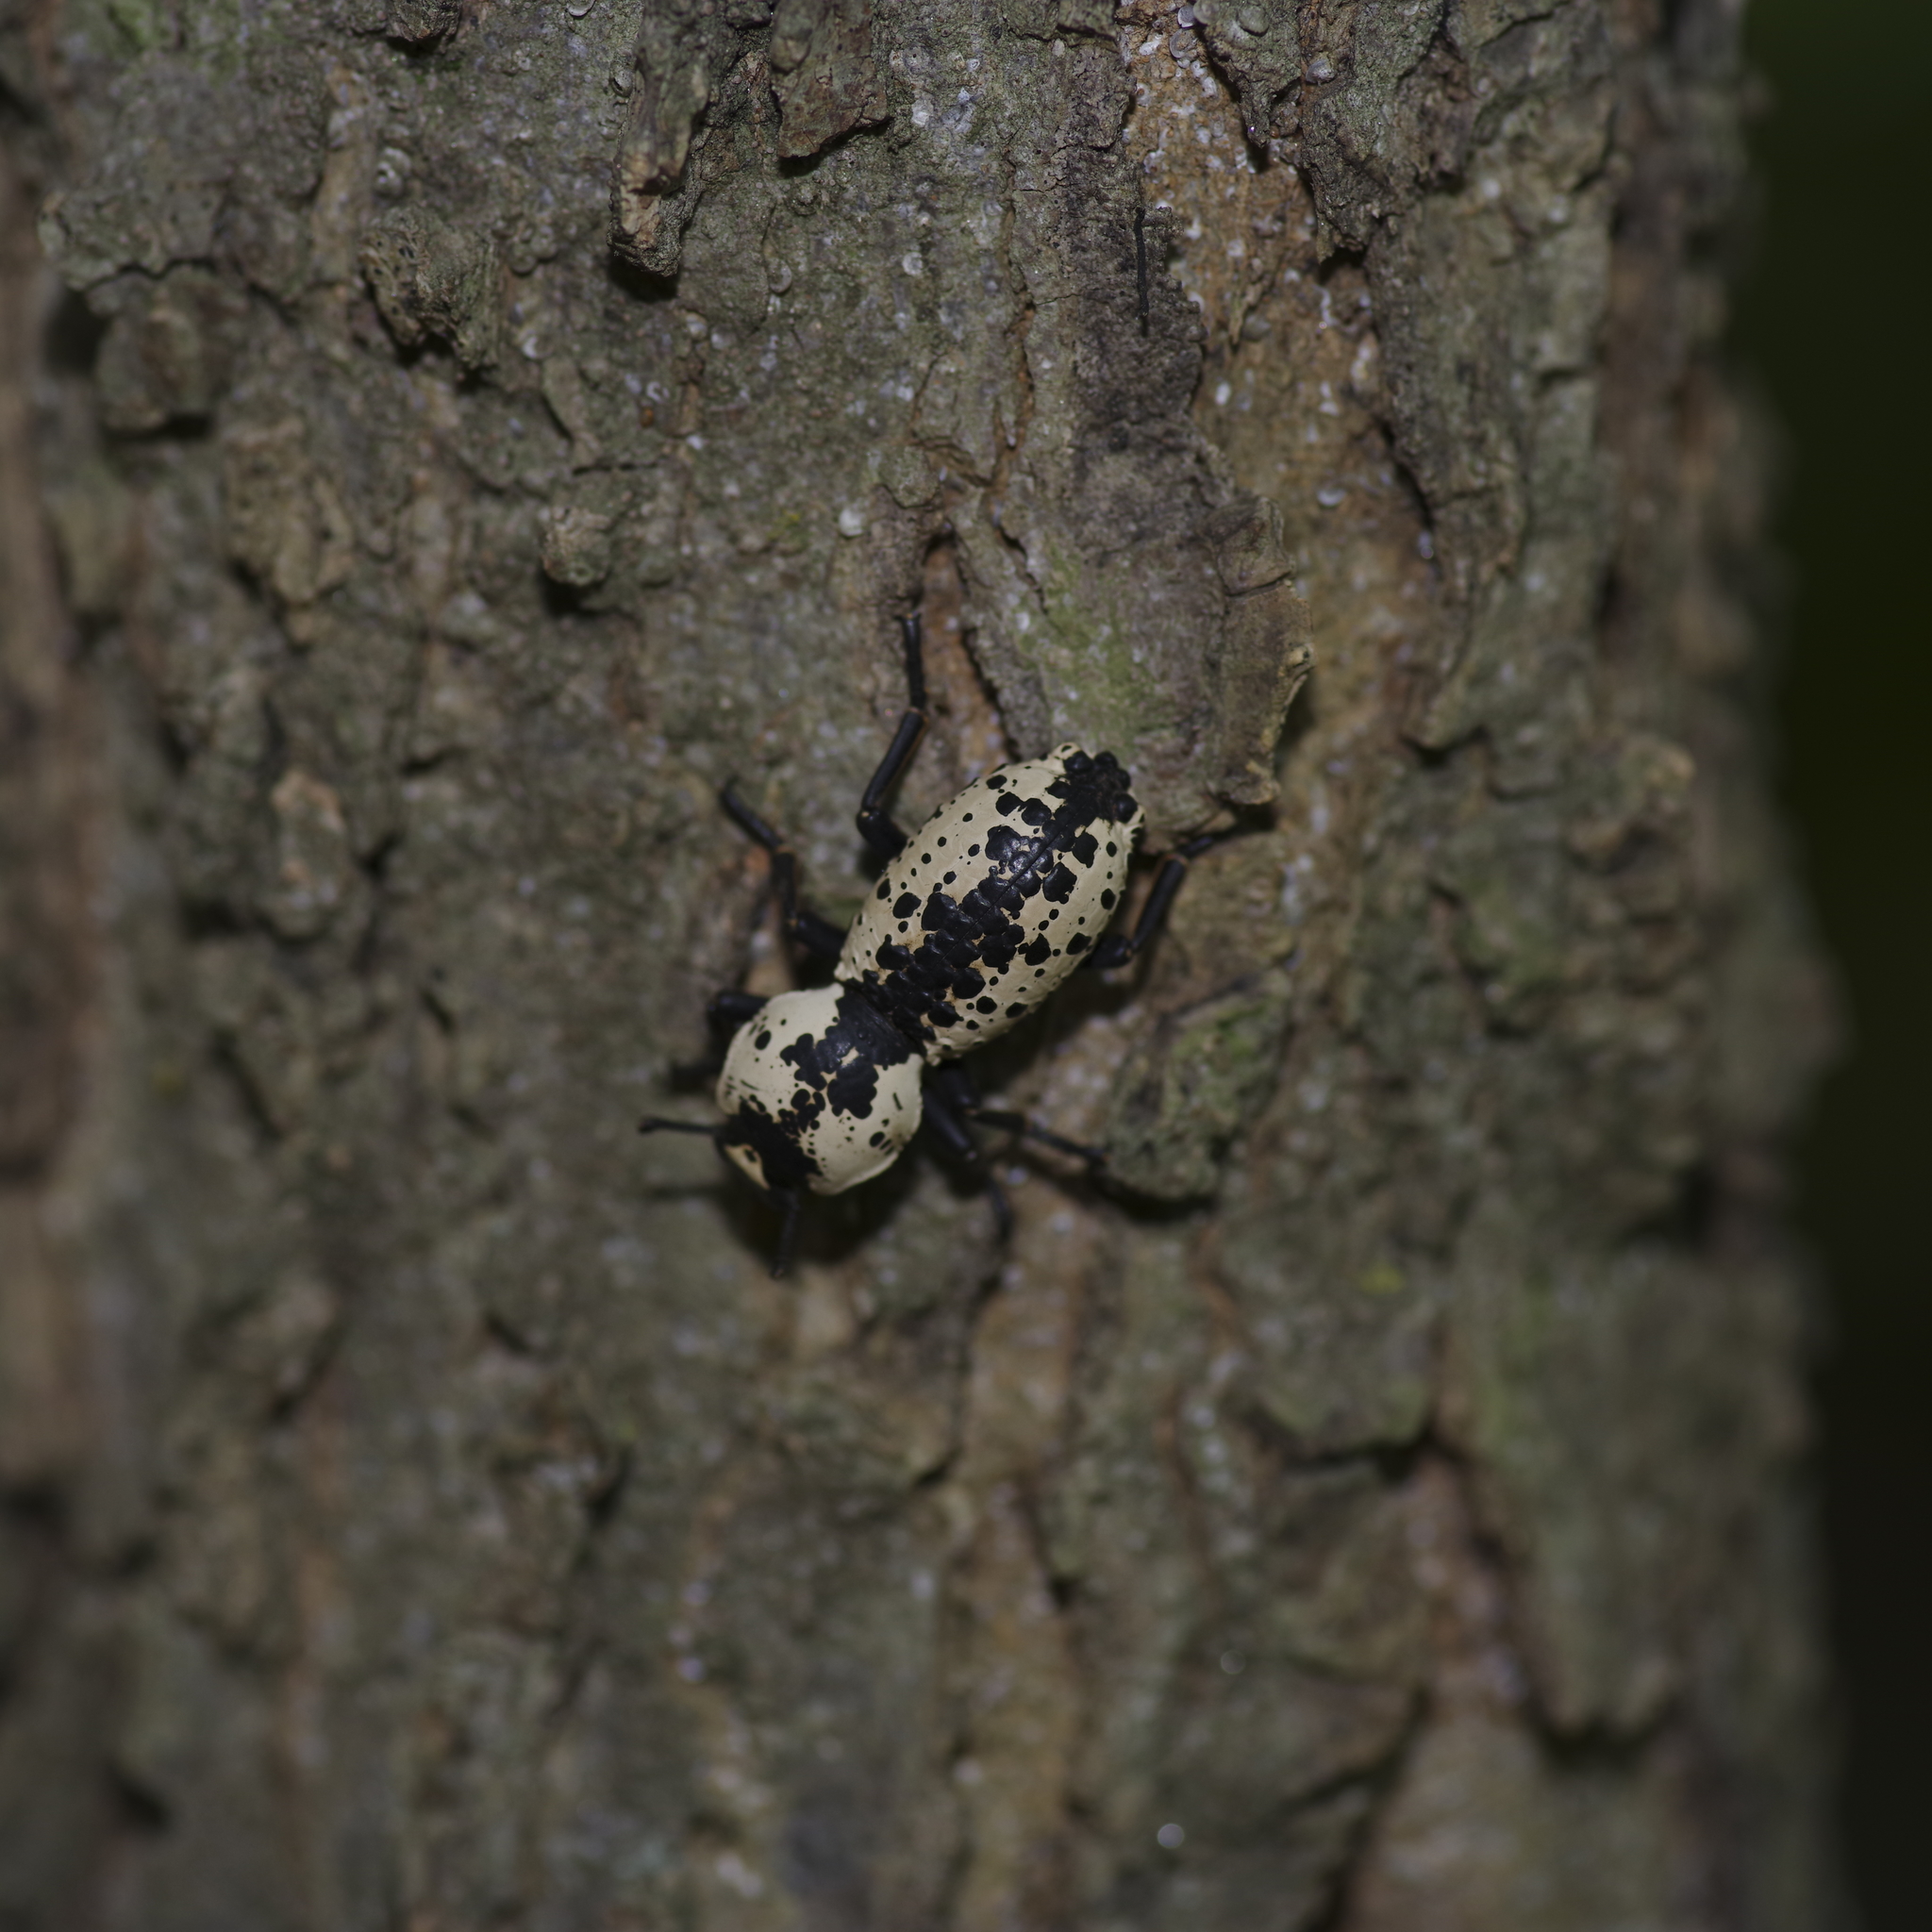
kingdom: Animalia
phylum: Arthropoda
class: Insecta
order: Coleoptera
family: Zopheridae
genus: Zopherus
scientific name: Zopherus nodulosus
